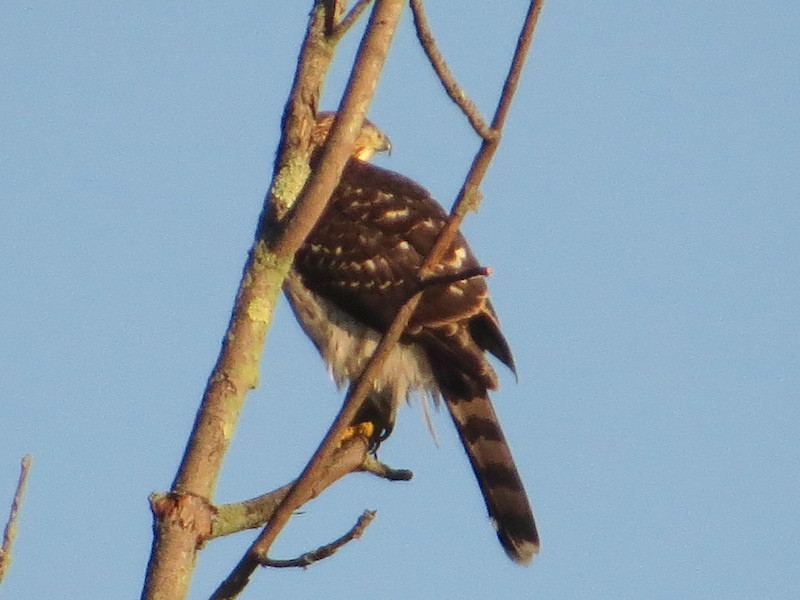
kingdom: Animalia
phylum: Chordata
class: Aves
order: Accipitriformes
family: Accipitridae
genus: Accipiter
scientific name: Accipiter cooperii
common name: Cooper's hawk
